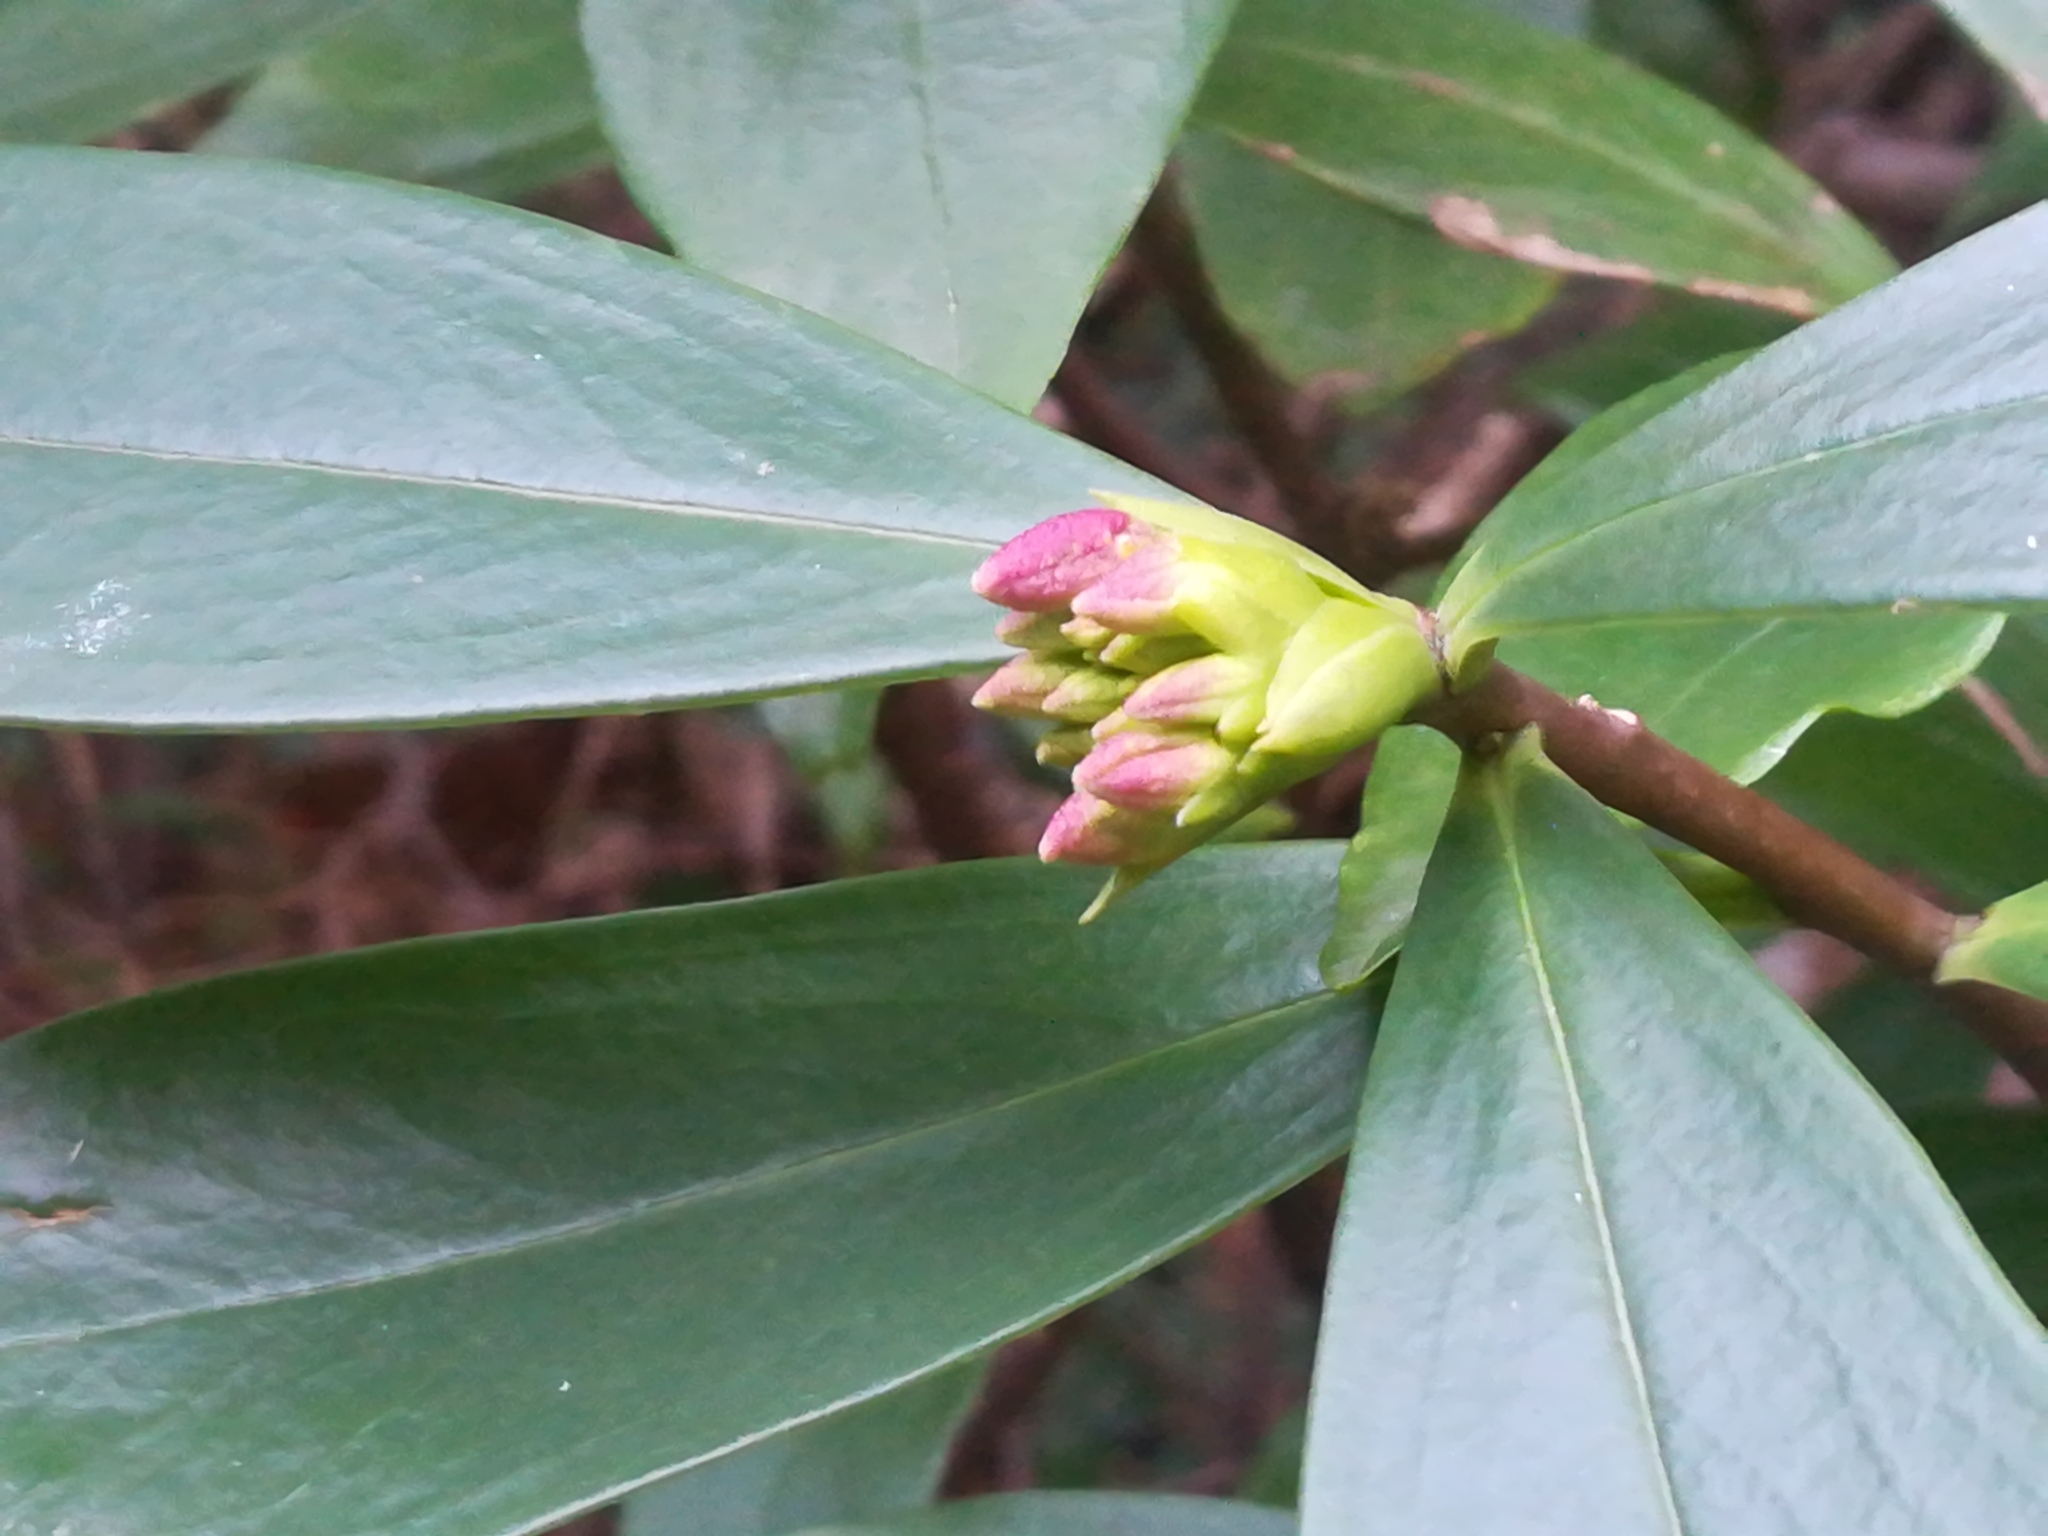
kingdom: Plantae
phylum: Tracheophyta
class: Magnoliopsida
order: Malvales
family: Thymelaeaceae
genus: Daphne
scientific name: Daphne odora
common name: Winter daphne
